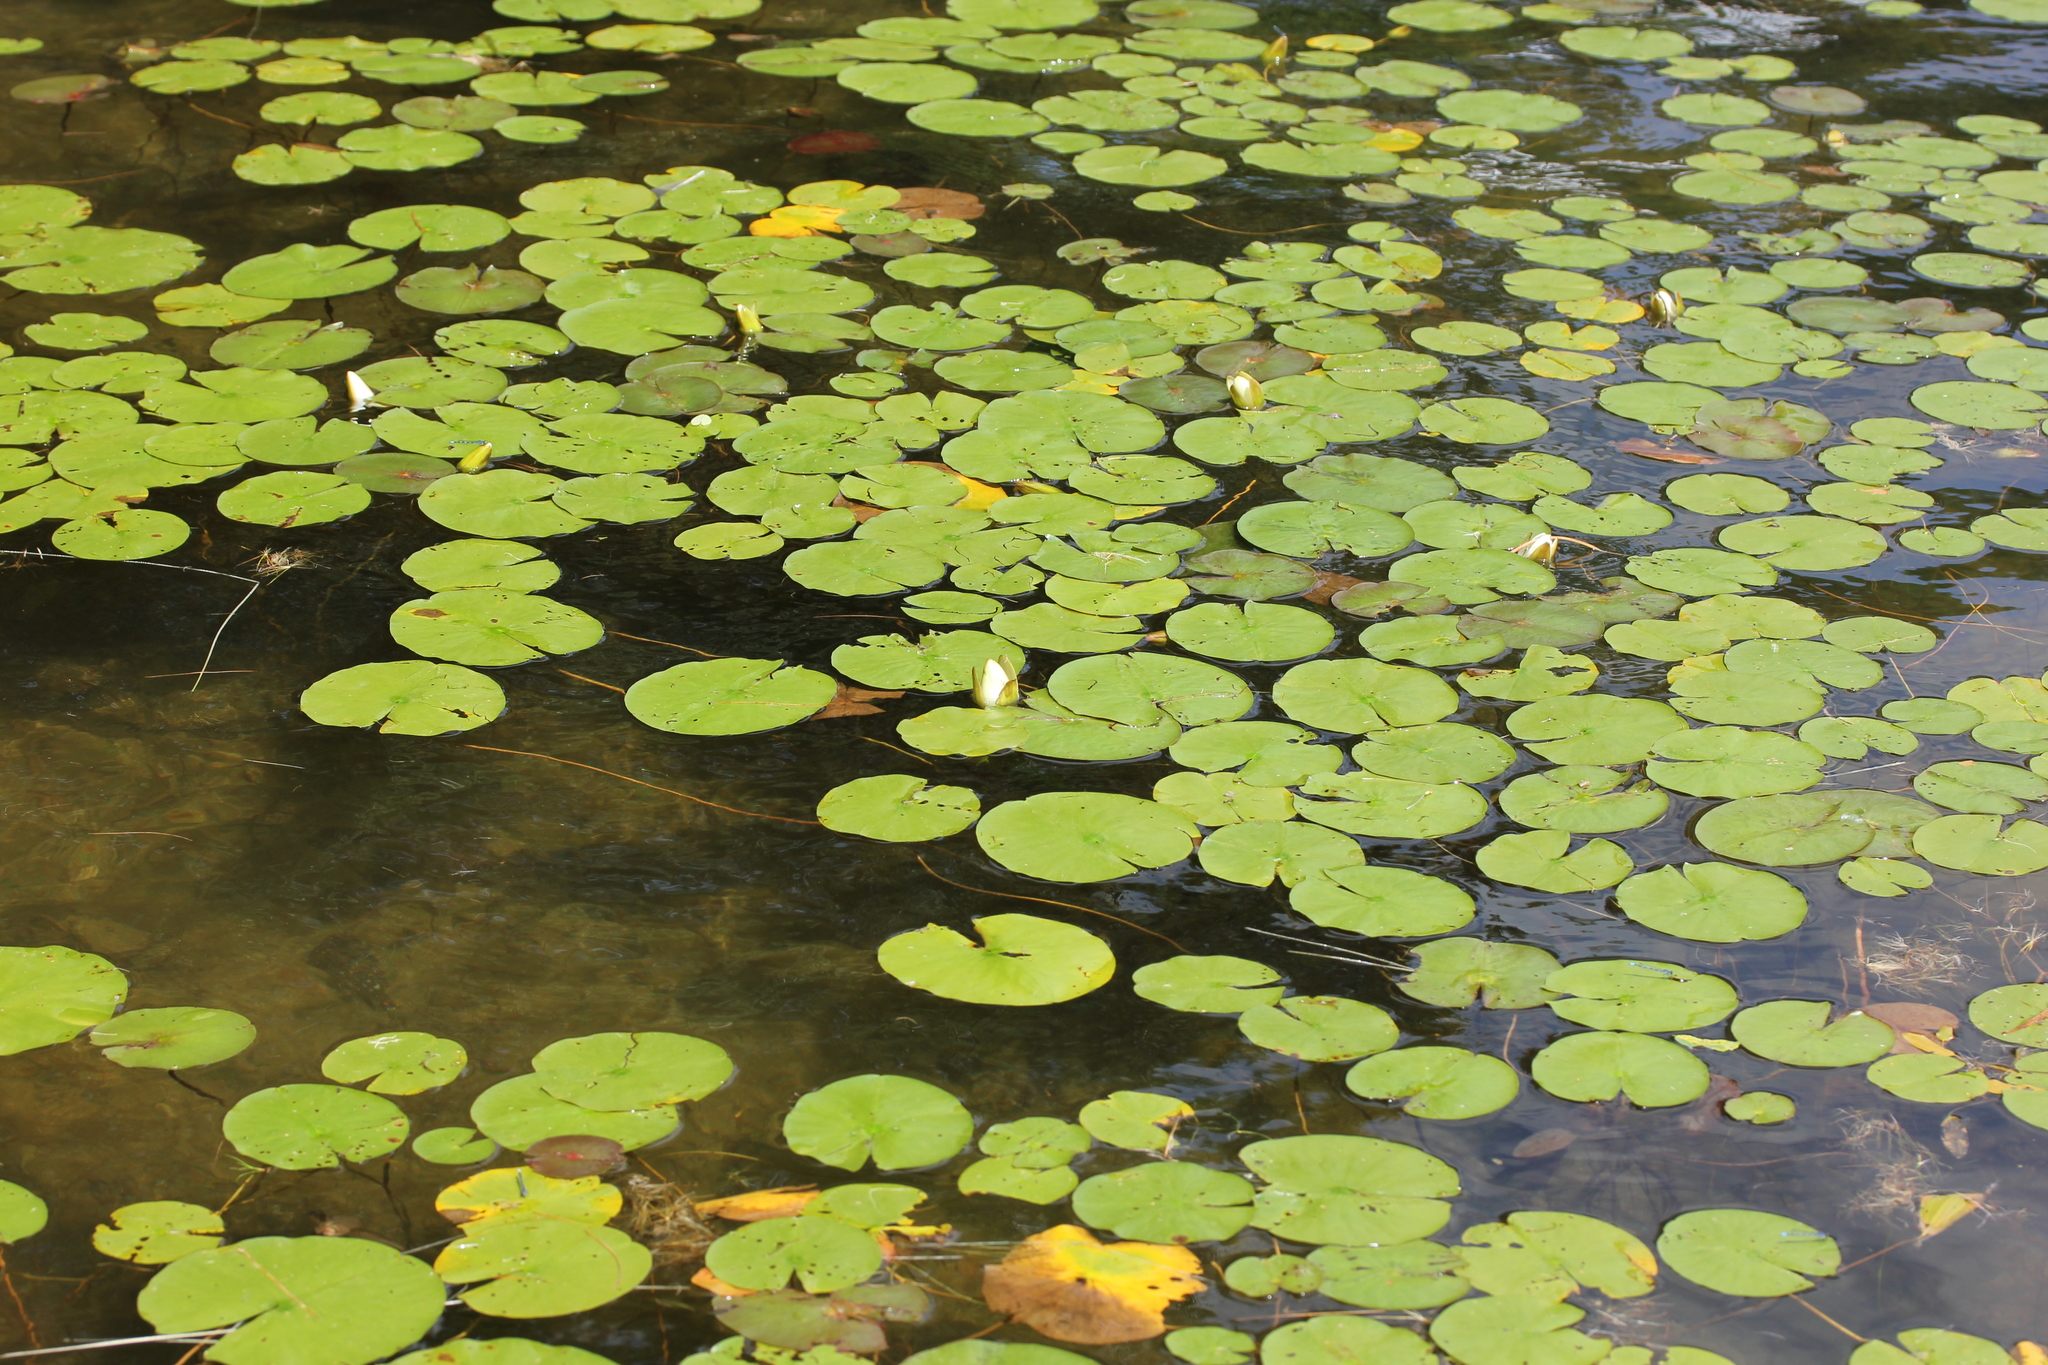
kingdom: Plantae
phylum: Tracheophyta
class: Magnoliopsida
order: Nymphaeales
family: Nymphaeaceae
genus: Nymphaea
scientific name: Nymphaea odorata
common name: Fragrant water-lily
